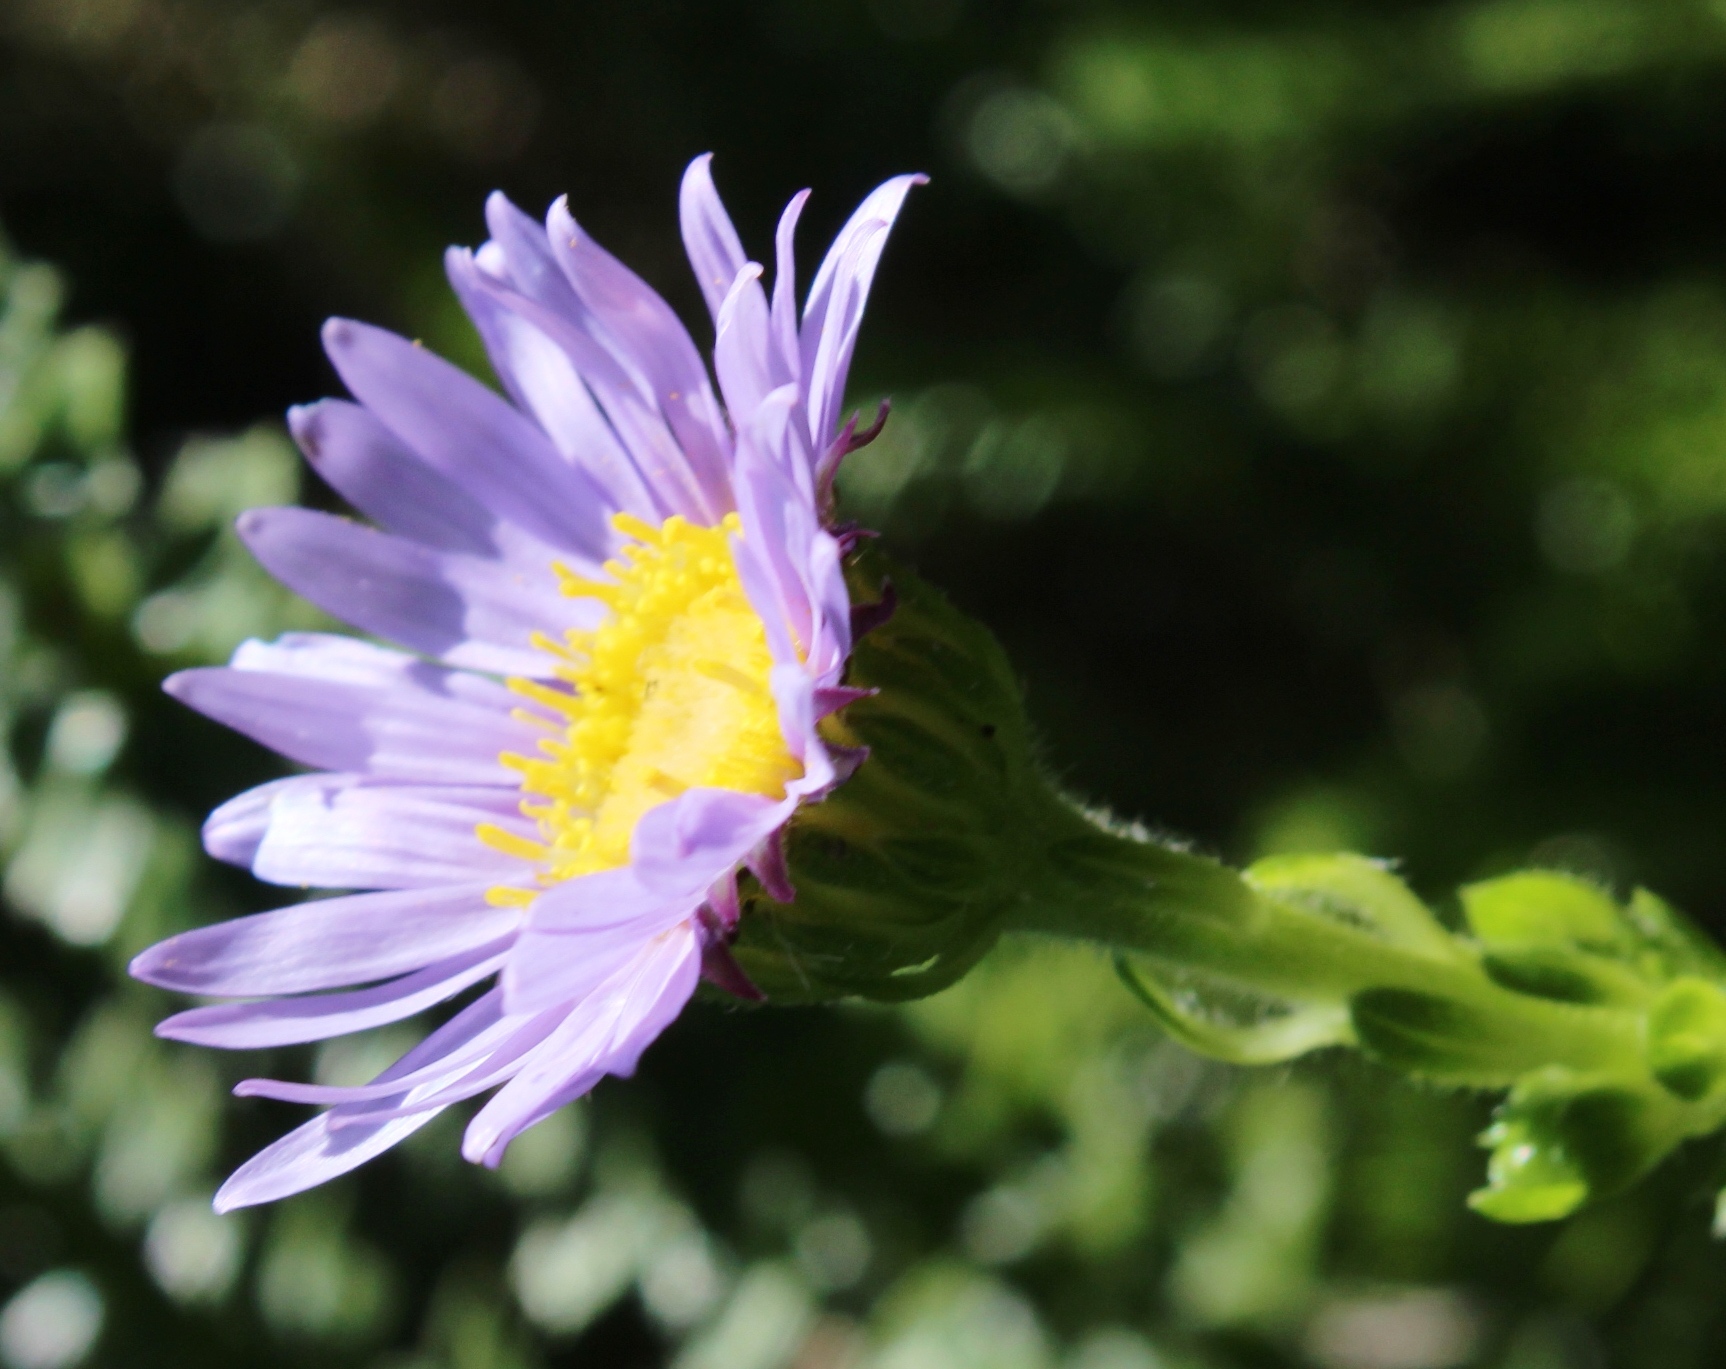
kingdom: Plantae
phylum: Tracheophyta
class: Magnoliopsida
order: Asterales
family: Asteraceae
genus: Felicia
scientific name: Felicia echinata
